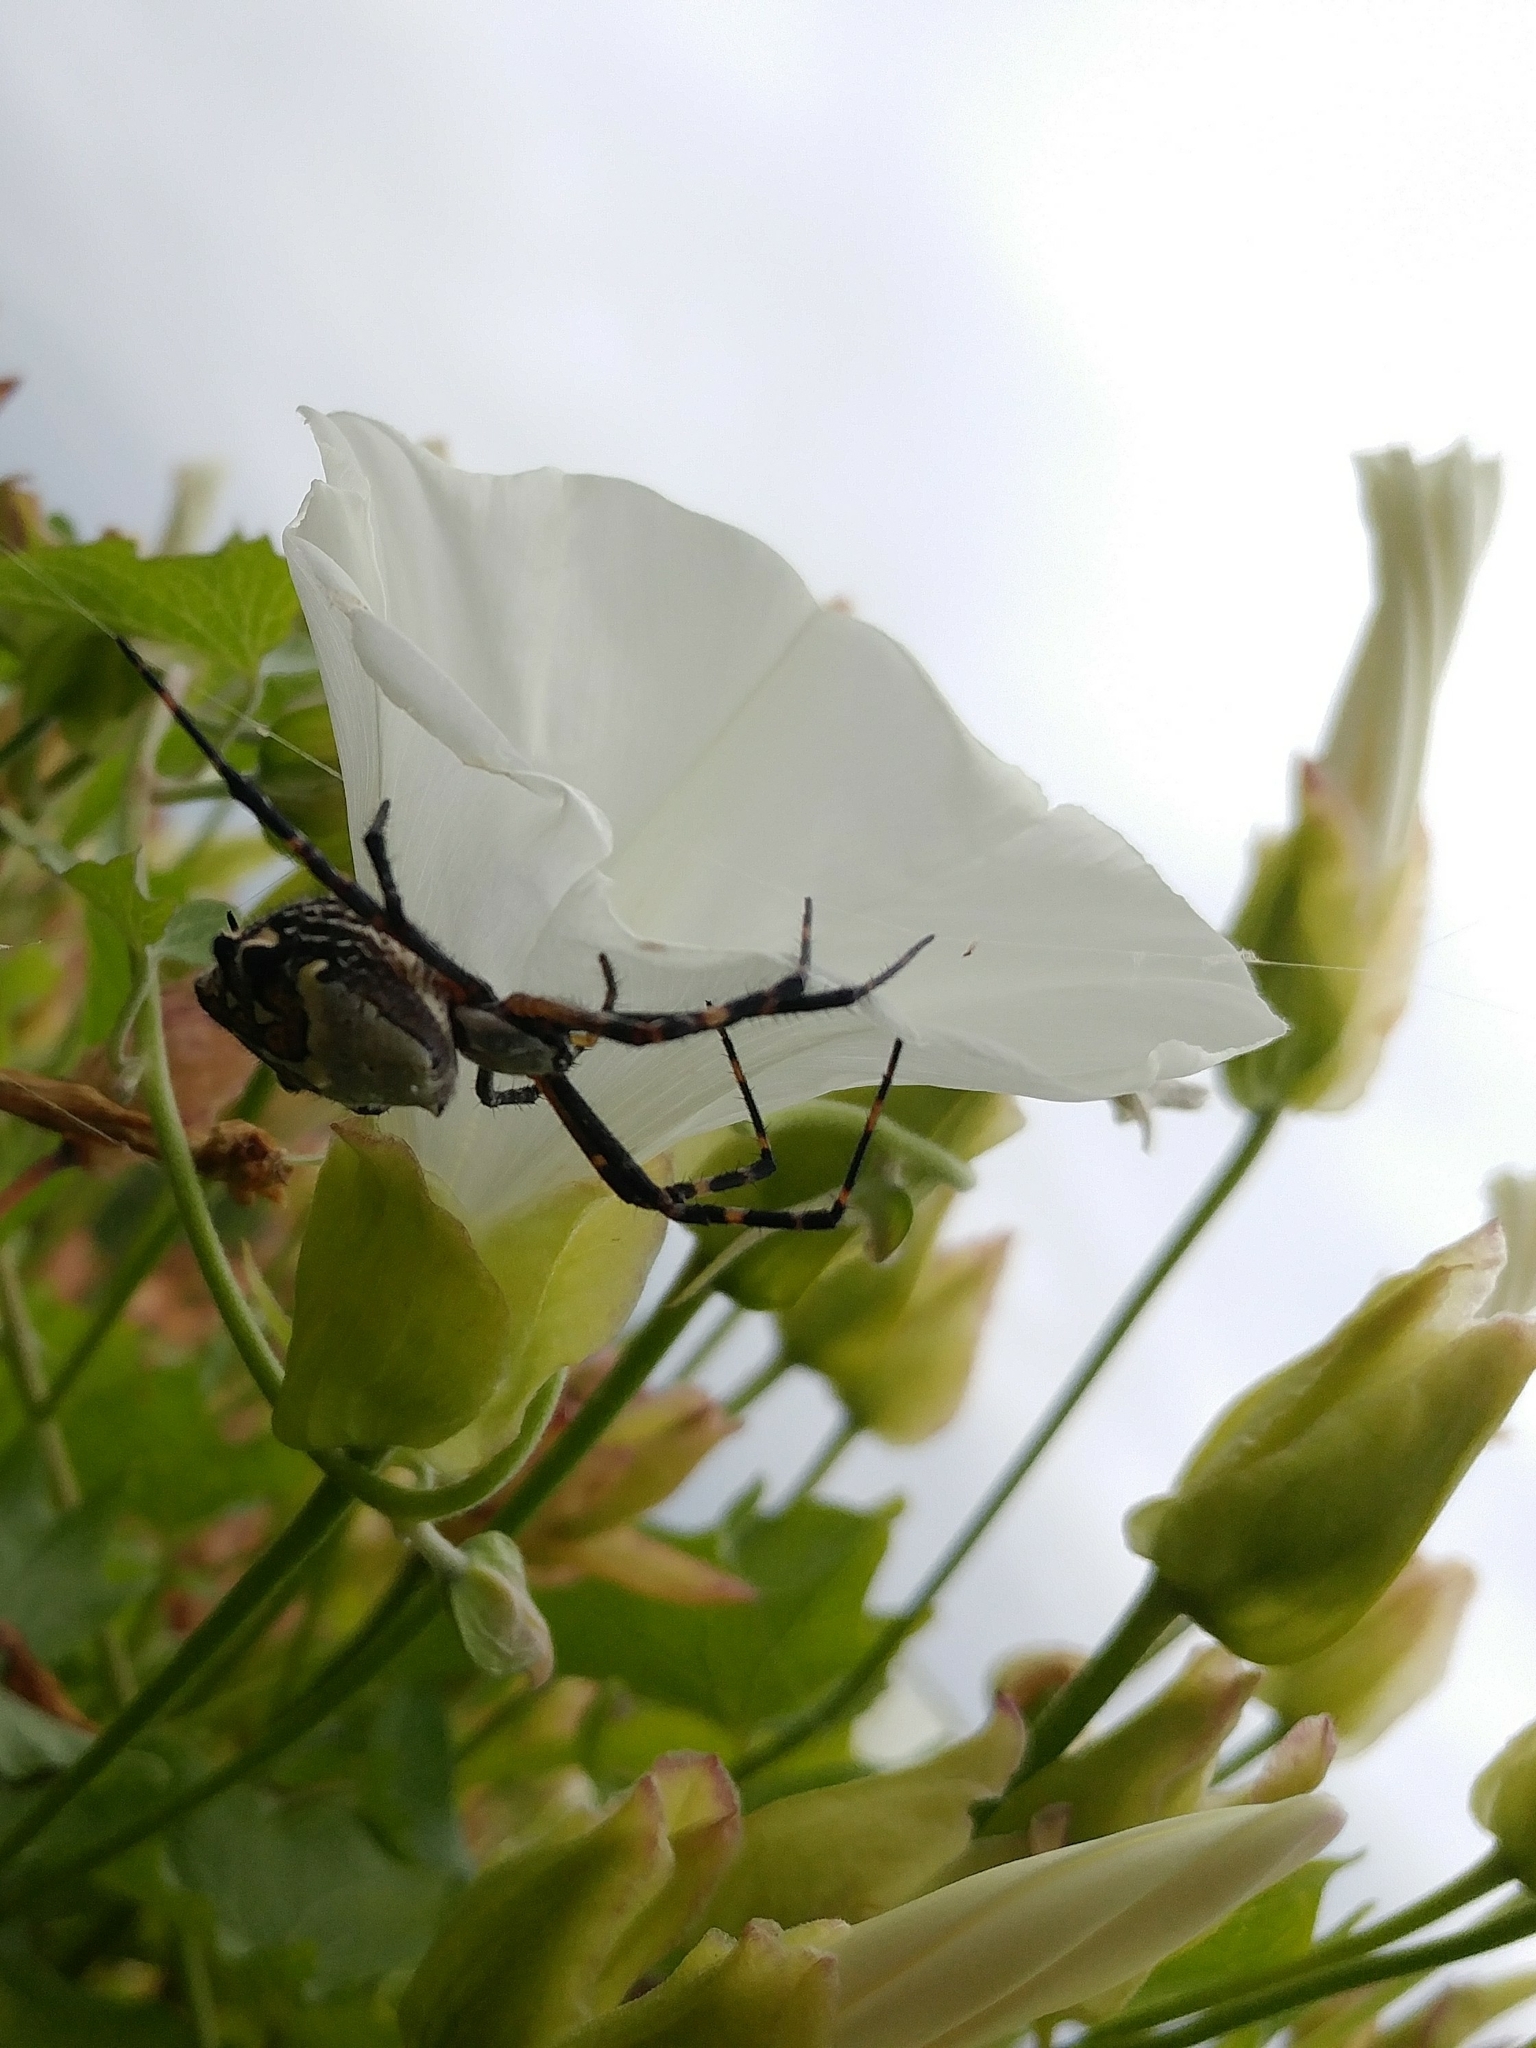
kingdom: Animalia
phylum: Arthropoda
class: Arachnida
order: Araneae
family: Araneidae
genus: Argiope
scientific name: Argiope argentata
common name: Orb weavers
